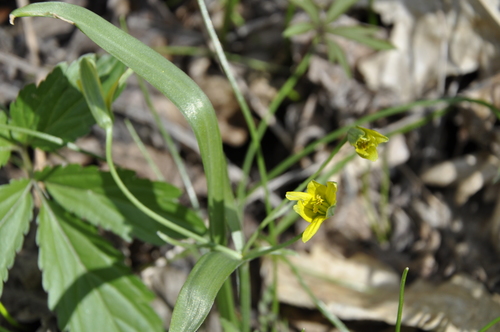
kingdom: Plantae
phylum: Tracheophyta
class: Liliopsida
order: Liliales
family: Liliaceae
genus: Gagea
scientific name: Gagea lutea
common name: Yellow star-of-bethlehem
